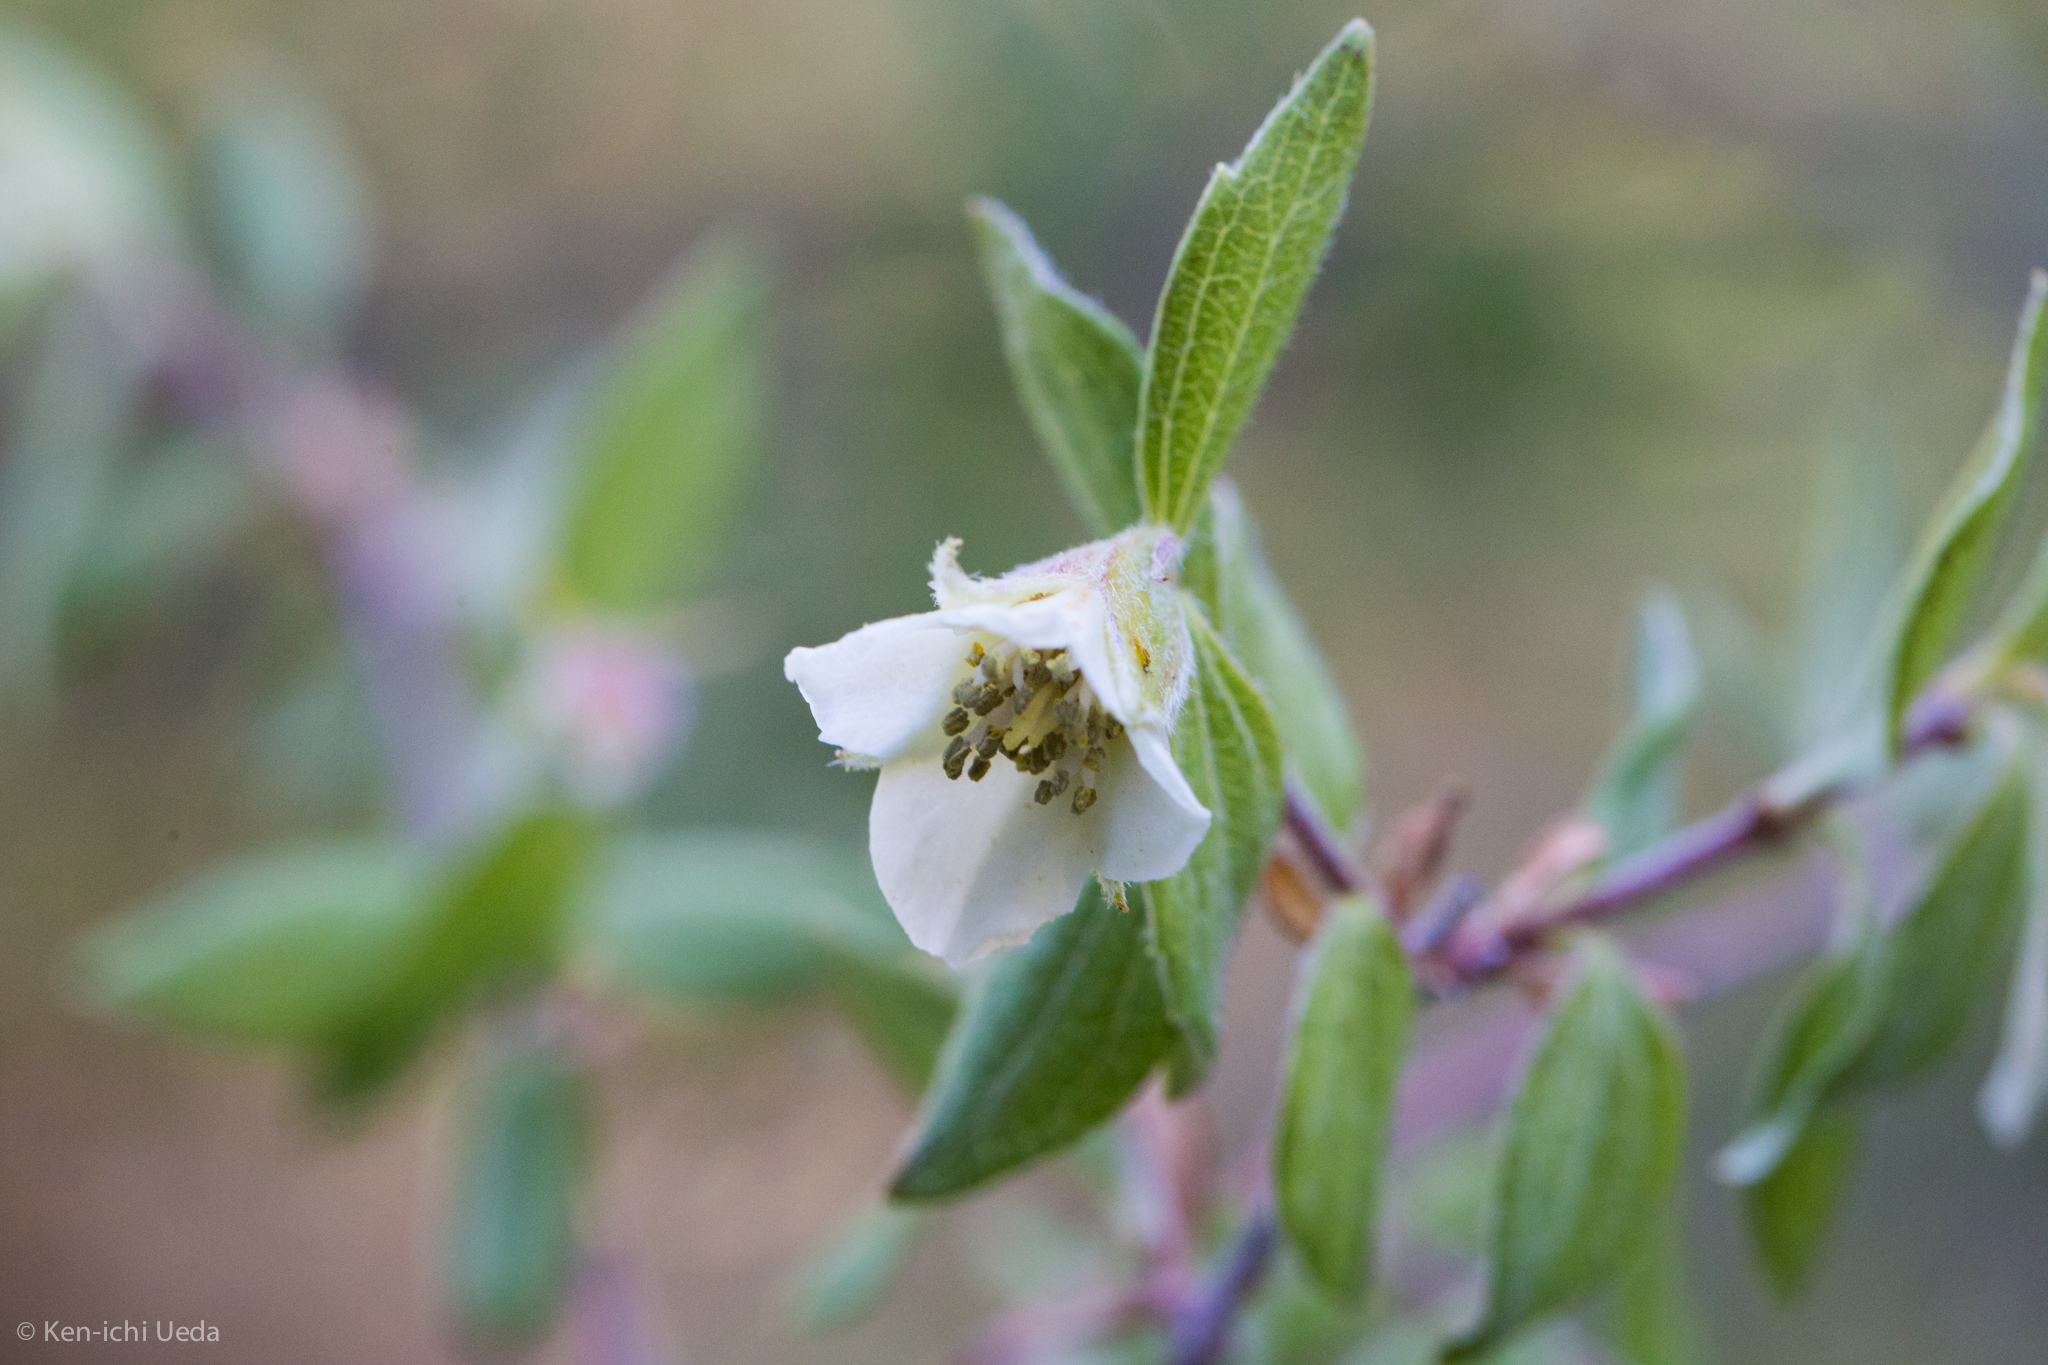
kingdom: Plantae
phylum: Tracheophyta
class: Magnoliopsida
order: Cornales
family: Hydrangeaceae
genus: Philadelphus
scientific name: Philadelphus microphyllus
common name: Desert mock orange
